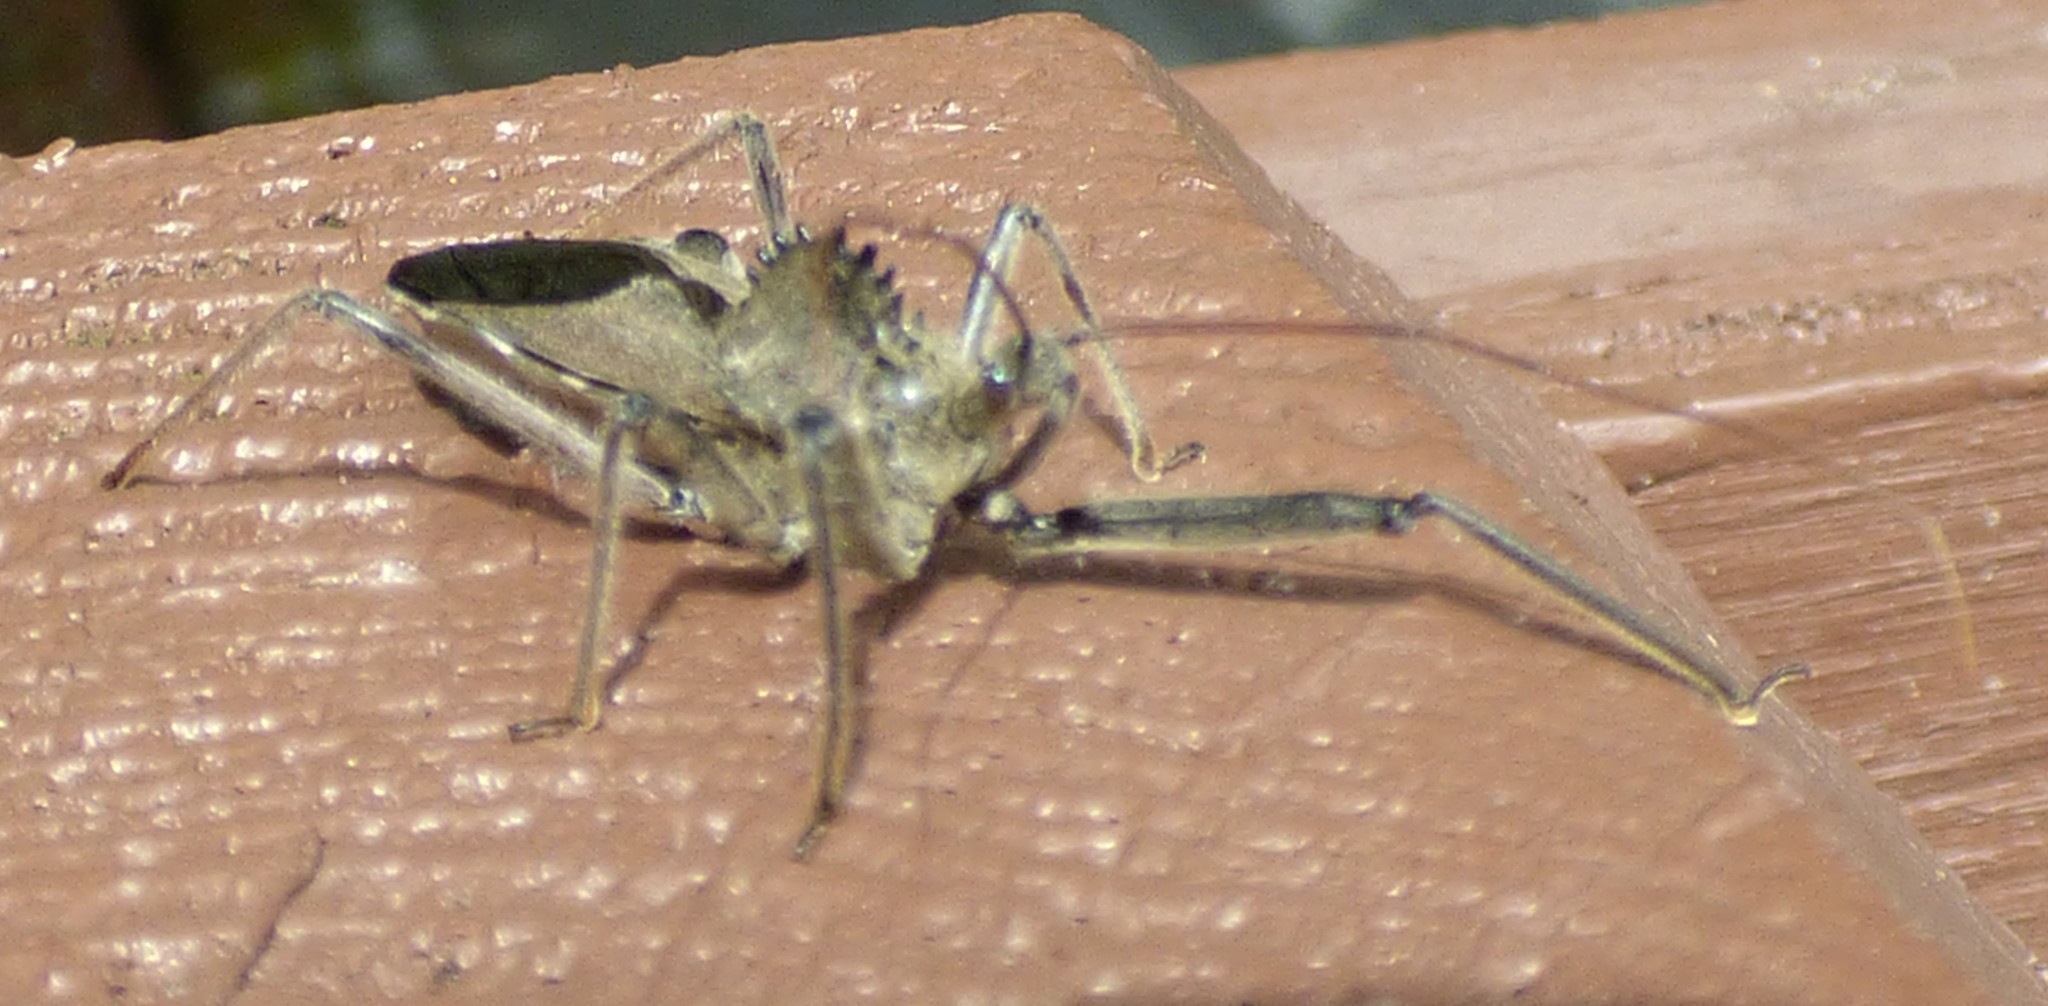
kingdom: Animalia
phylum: Arthropoda
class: Insecta
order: Hemiptera
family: Reduviidae
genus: Arilus
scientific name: Arilus cristatus
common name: North american wheel bug
